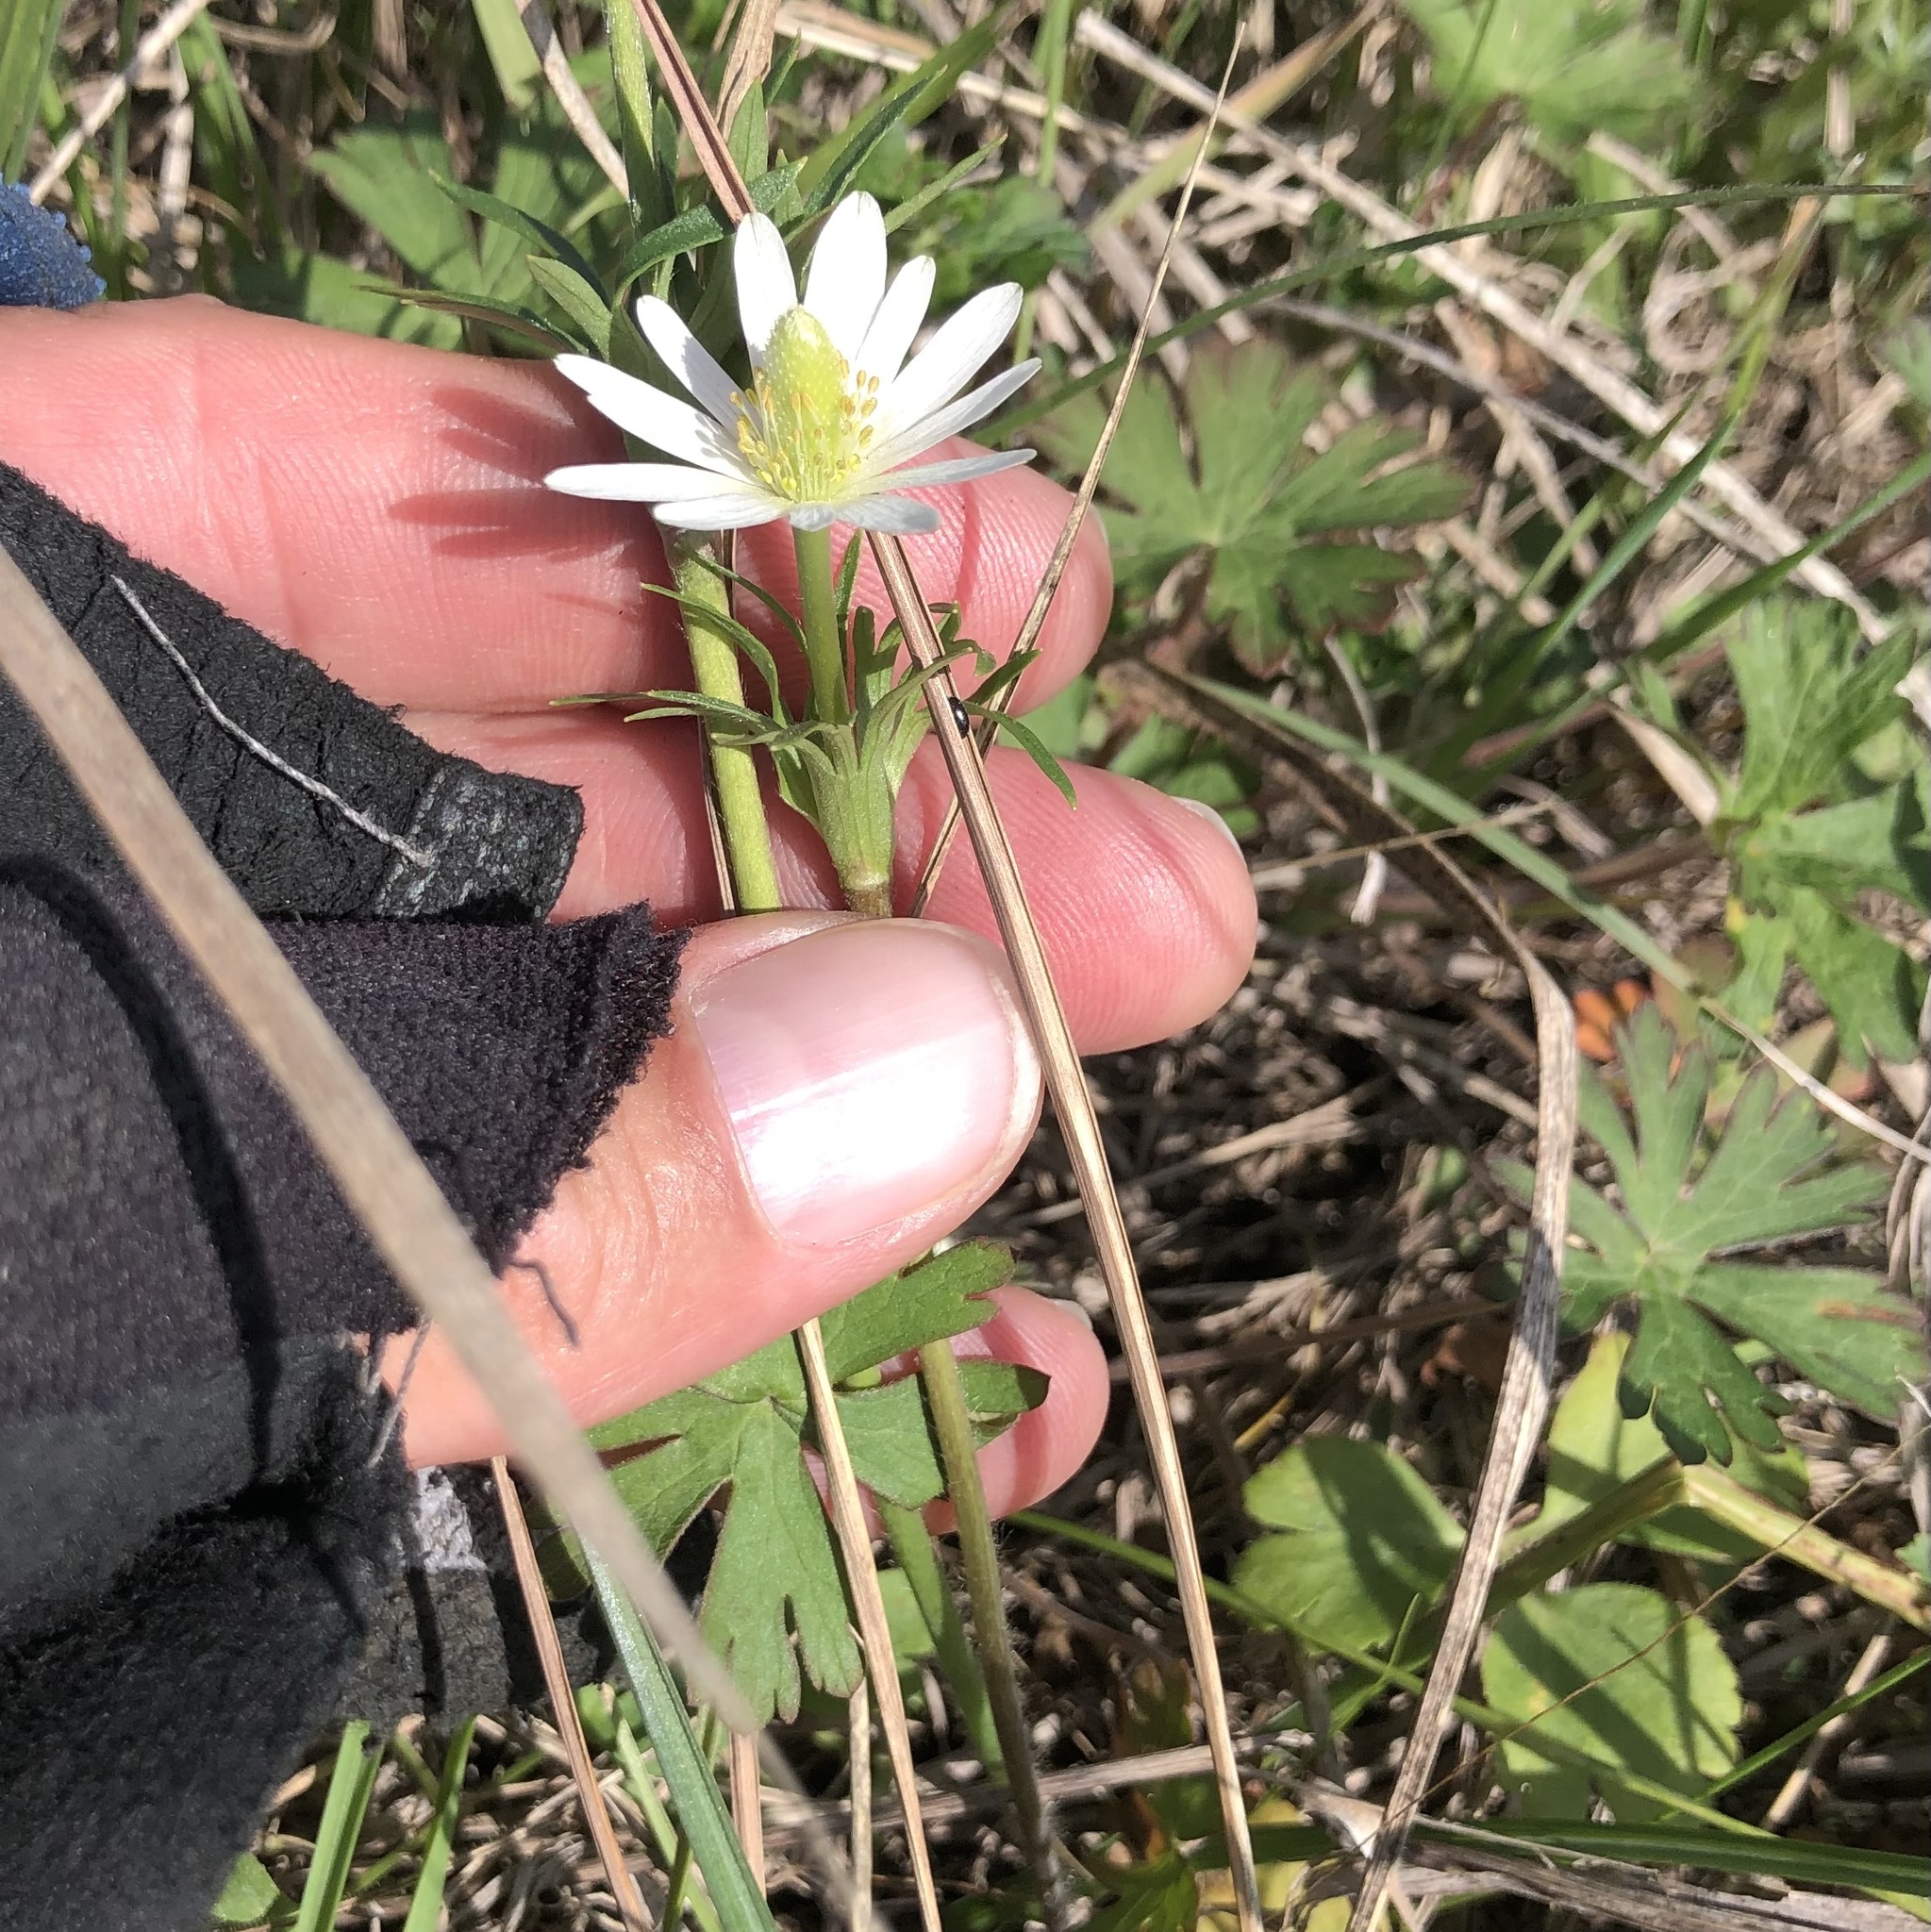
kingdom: Plantae
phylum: Tracheophyta
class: Magnoliopsida
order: Ranunculales
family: Ranunculaceae
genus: Anemone
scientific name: Anemone berlandieri
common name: Ten-petal anemone
